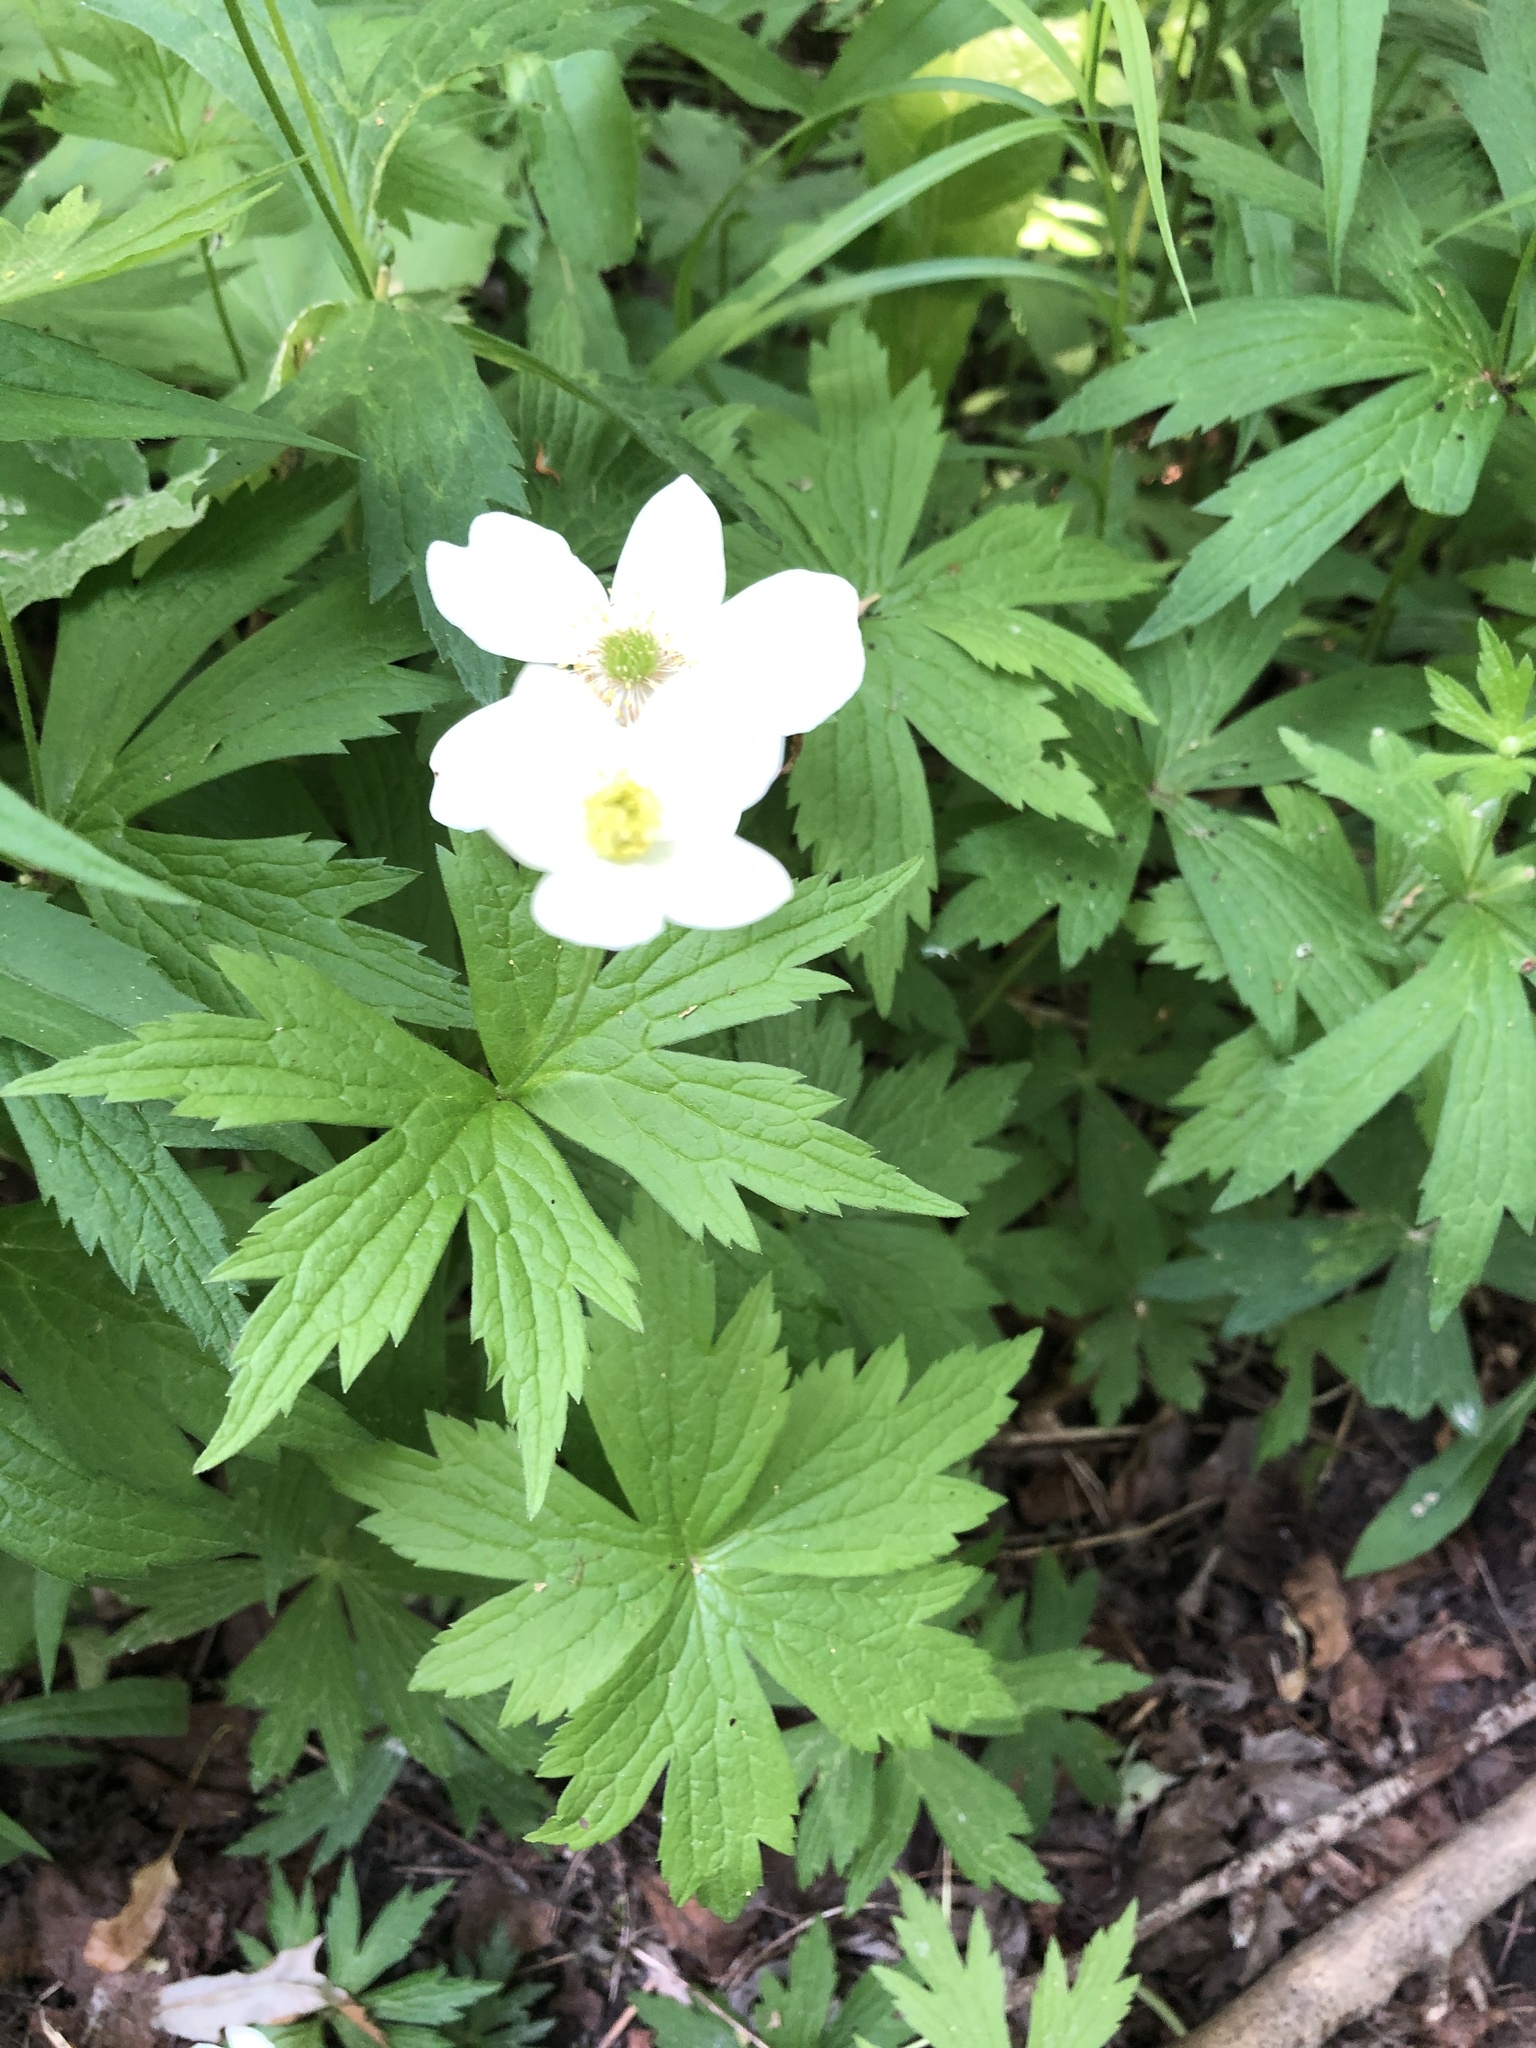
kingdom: Plantae
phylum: Tracheophyta
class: Magnoliopsida
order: Ranunculales
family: Ranunculaceae
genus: Anemonastrum
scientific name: Anemonastrum canadense
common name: Canada anemone
